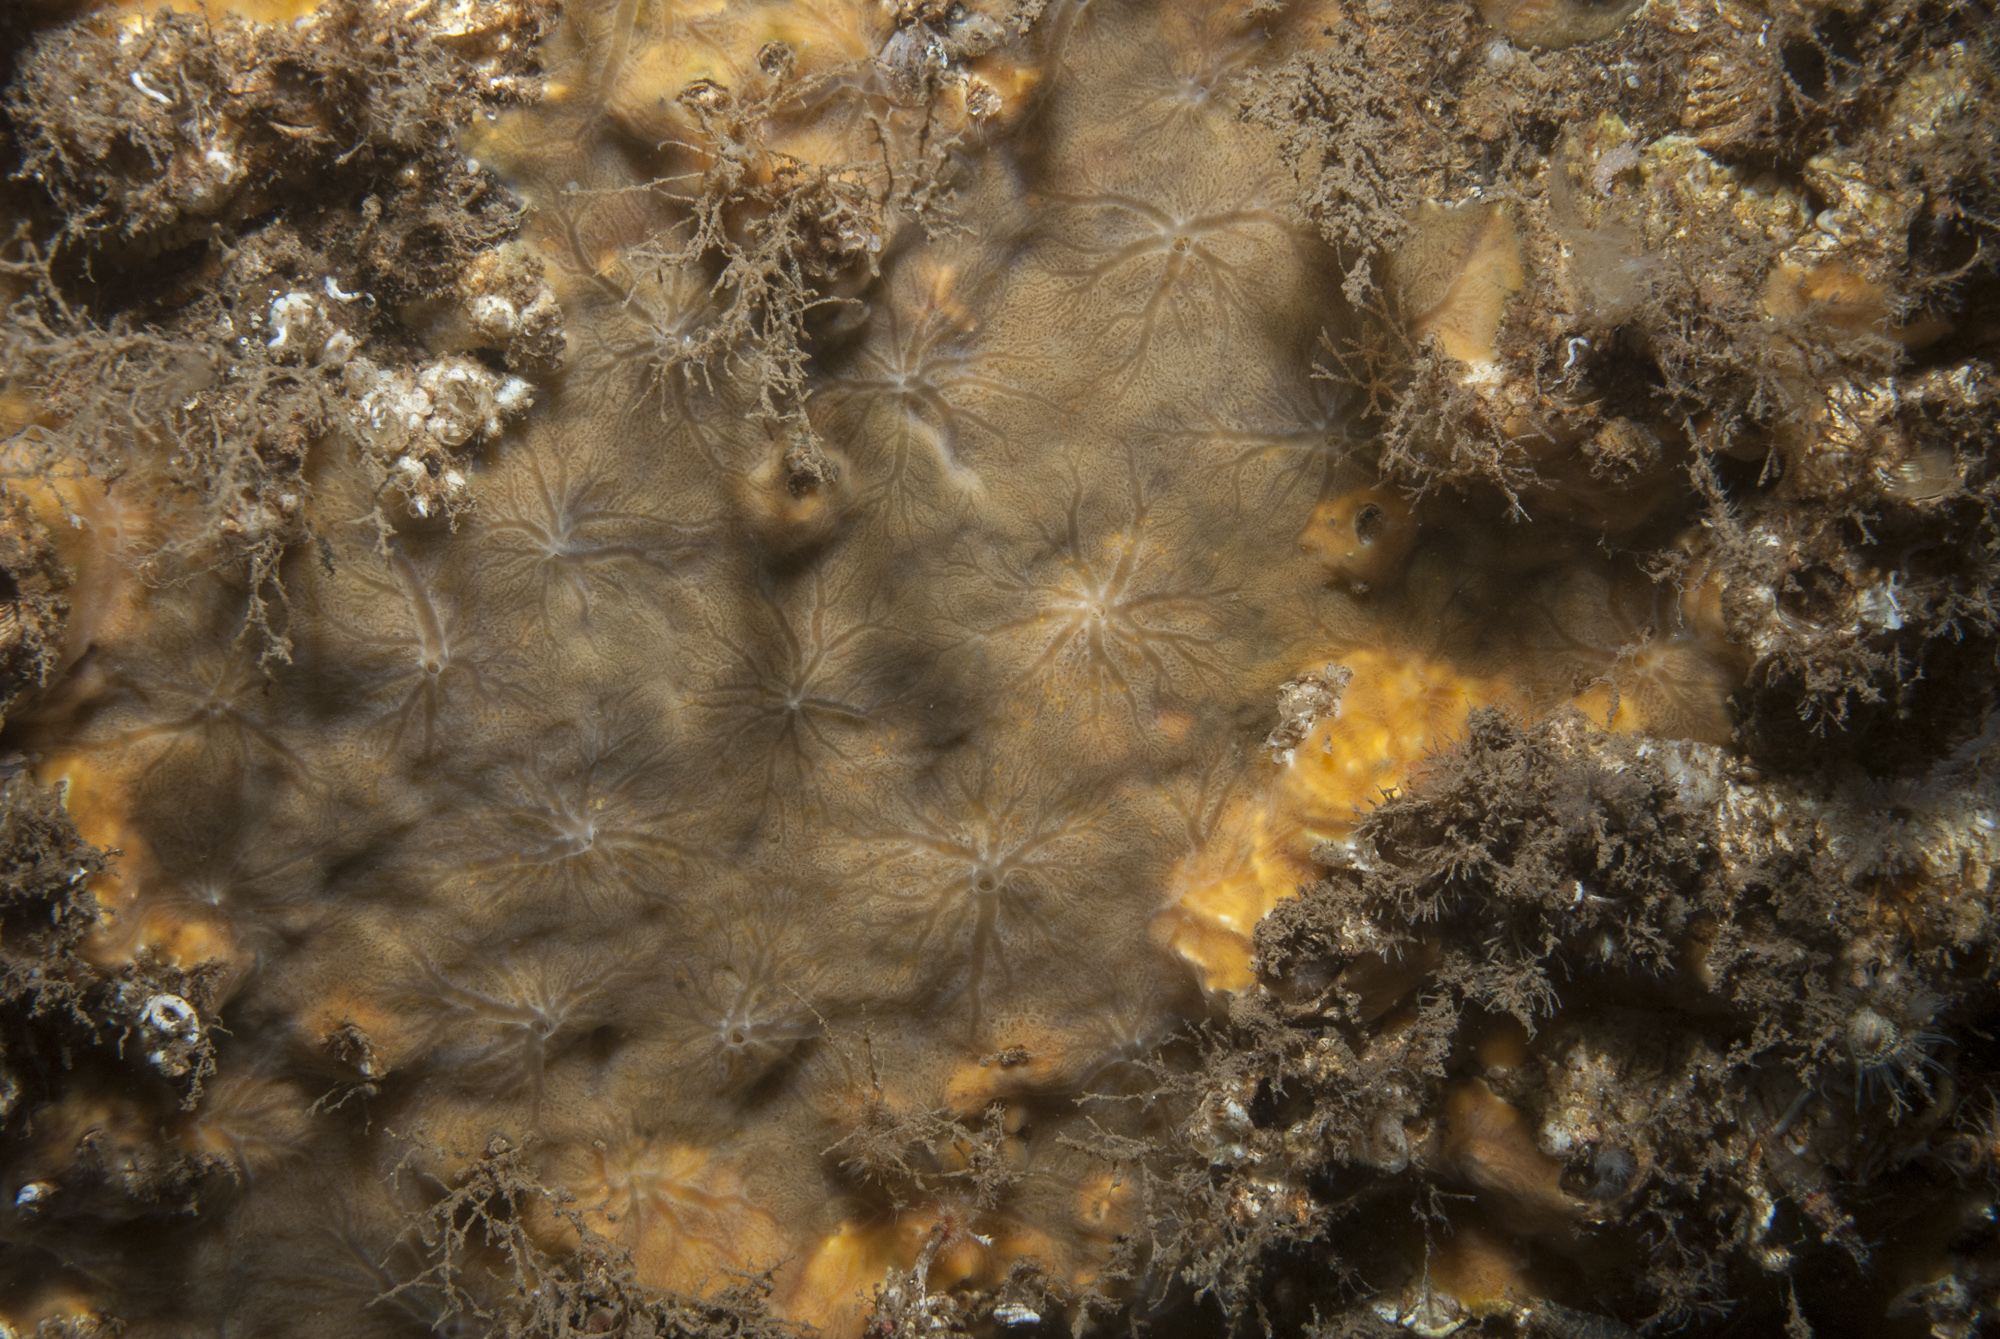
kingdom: Animalia
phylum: Porifera
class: Demospongiae
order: Poecilosclerida
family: Hymedesmiidae
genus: Hymedesmia
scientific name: Hymedesmia stellifera
